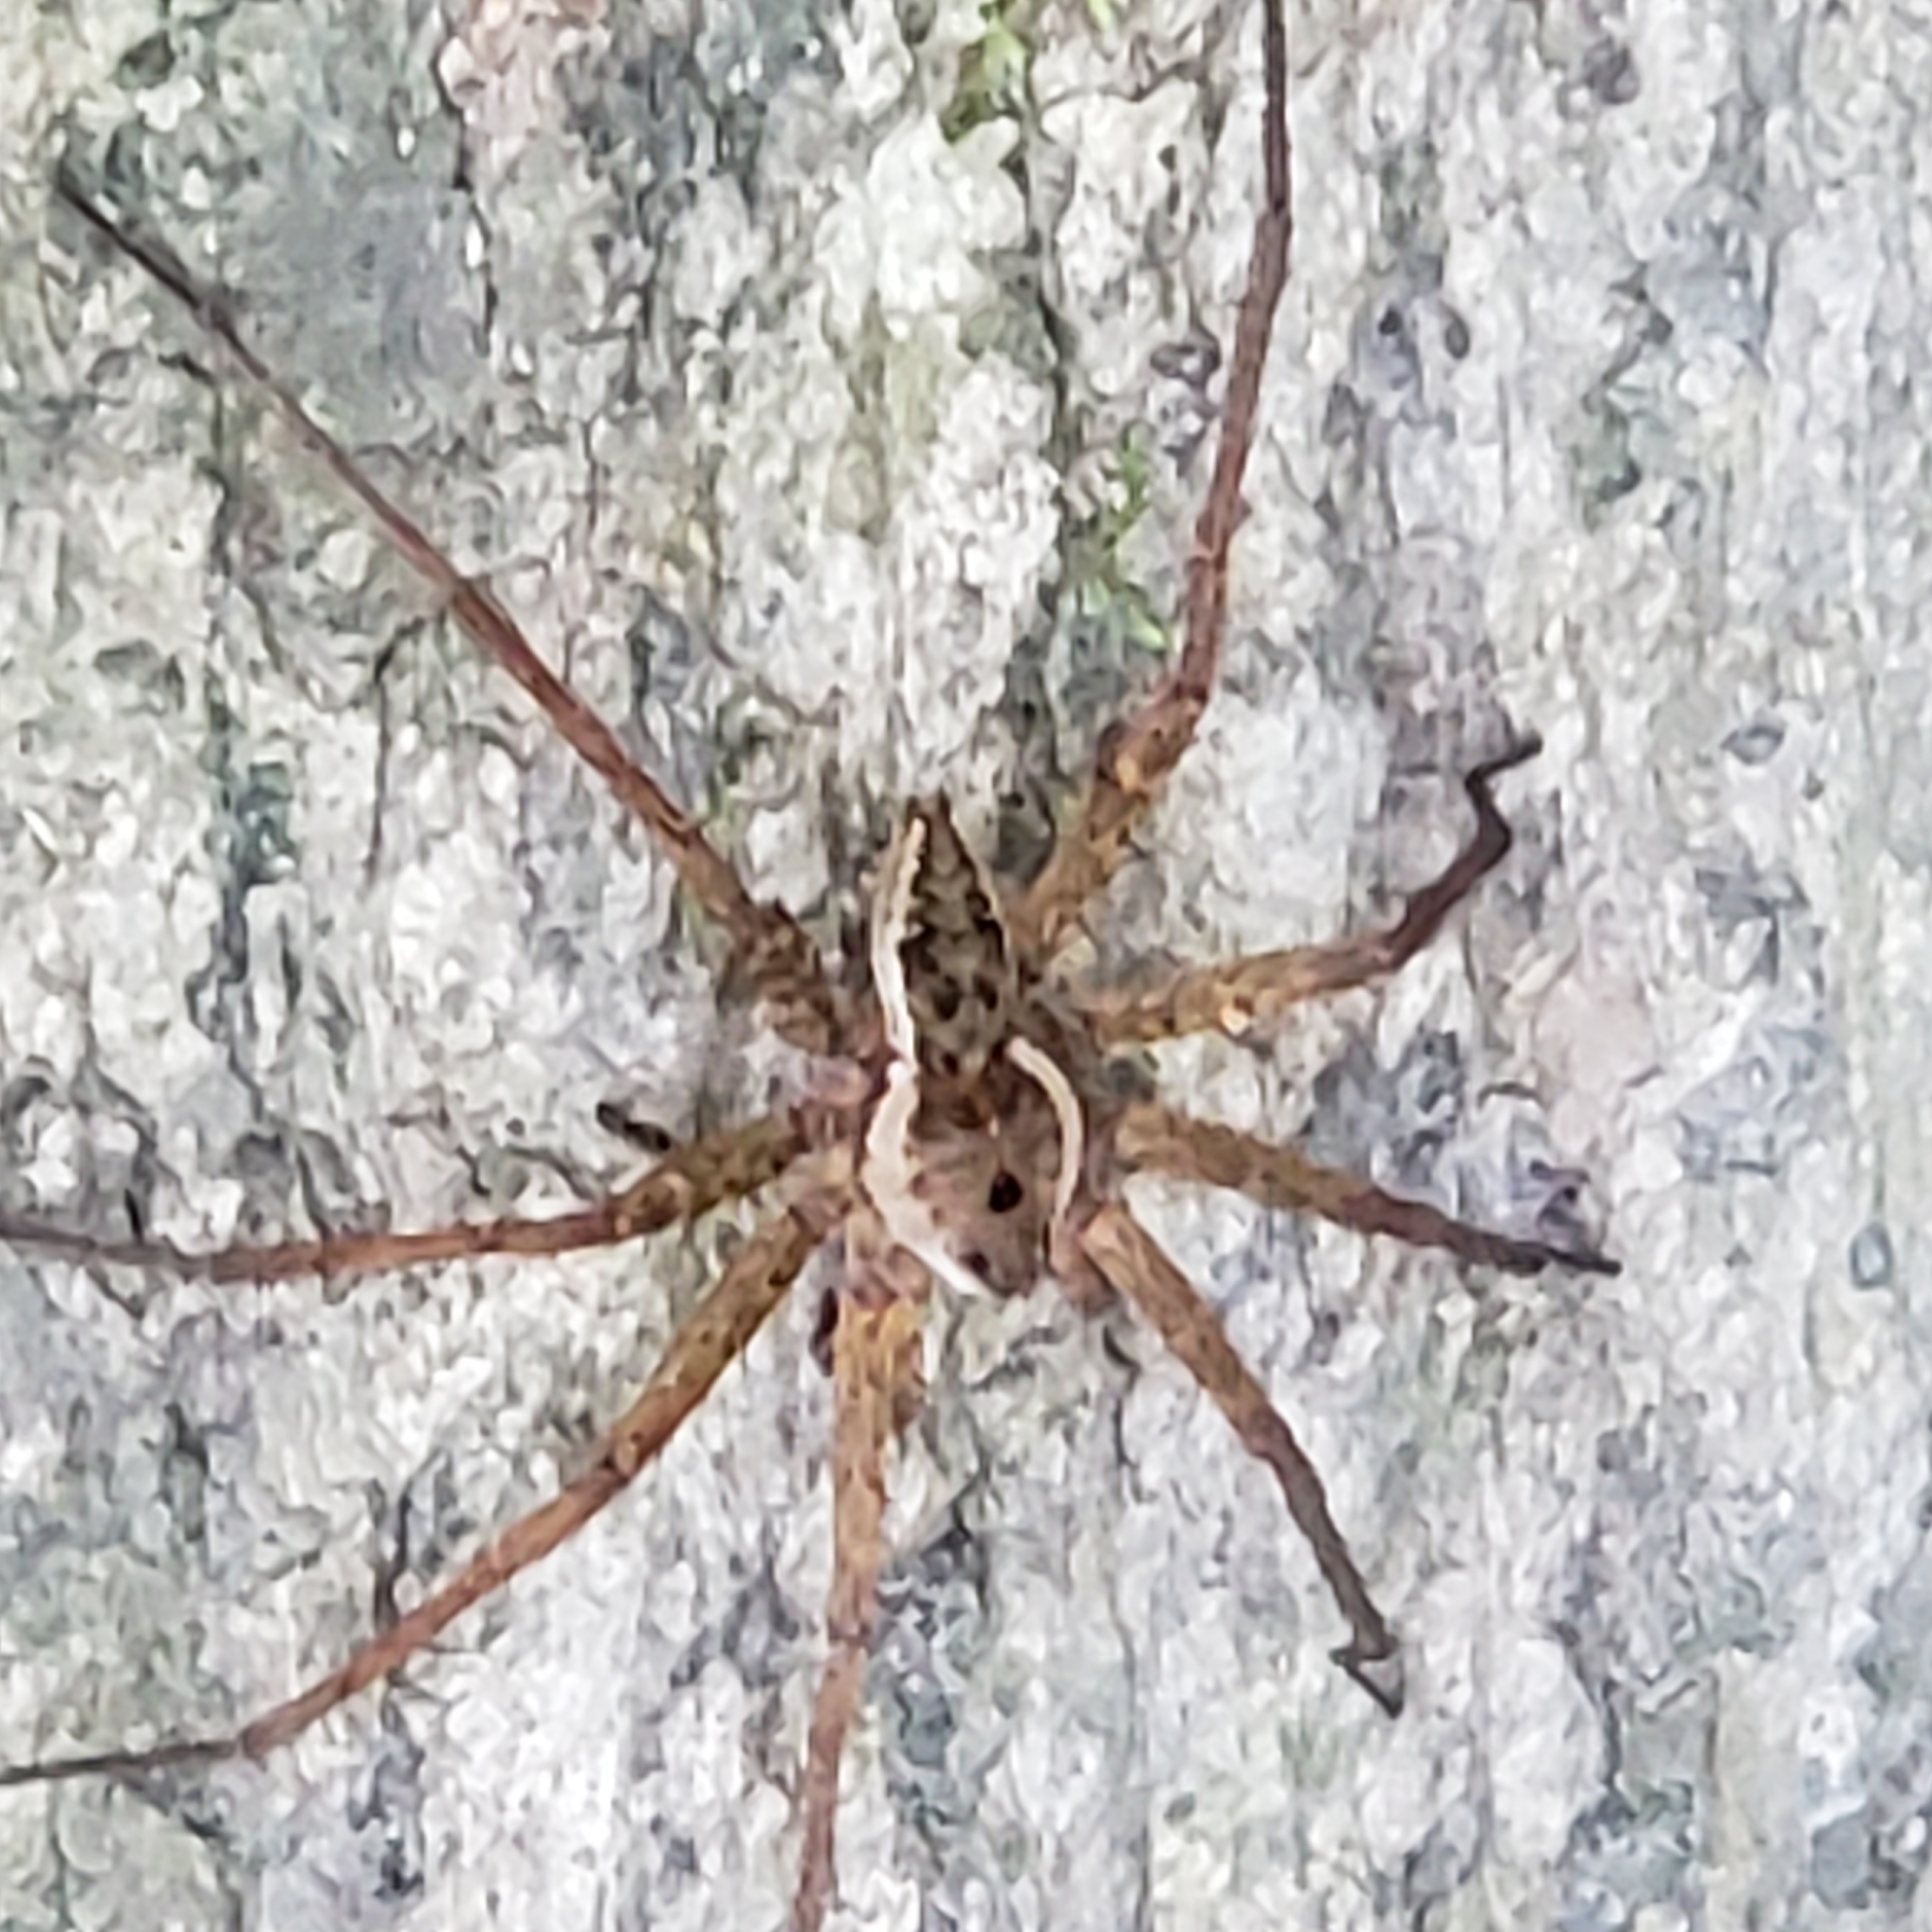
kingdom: Animalia
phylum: Arthropoda
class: Arachnida
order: Araneae
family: Pisauridae
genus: Dolomedes
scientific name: Dolomedes vittatus
